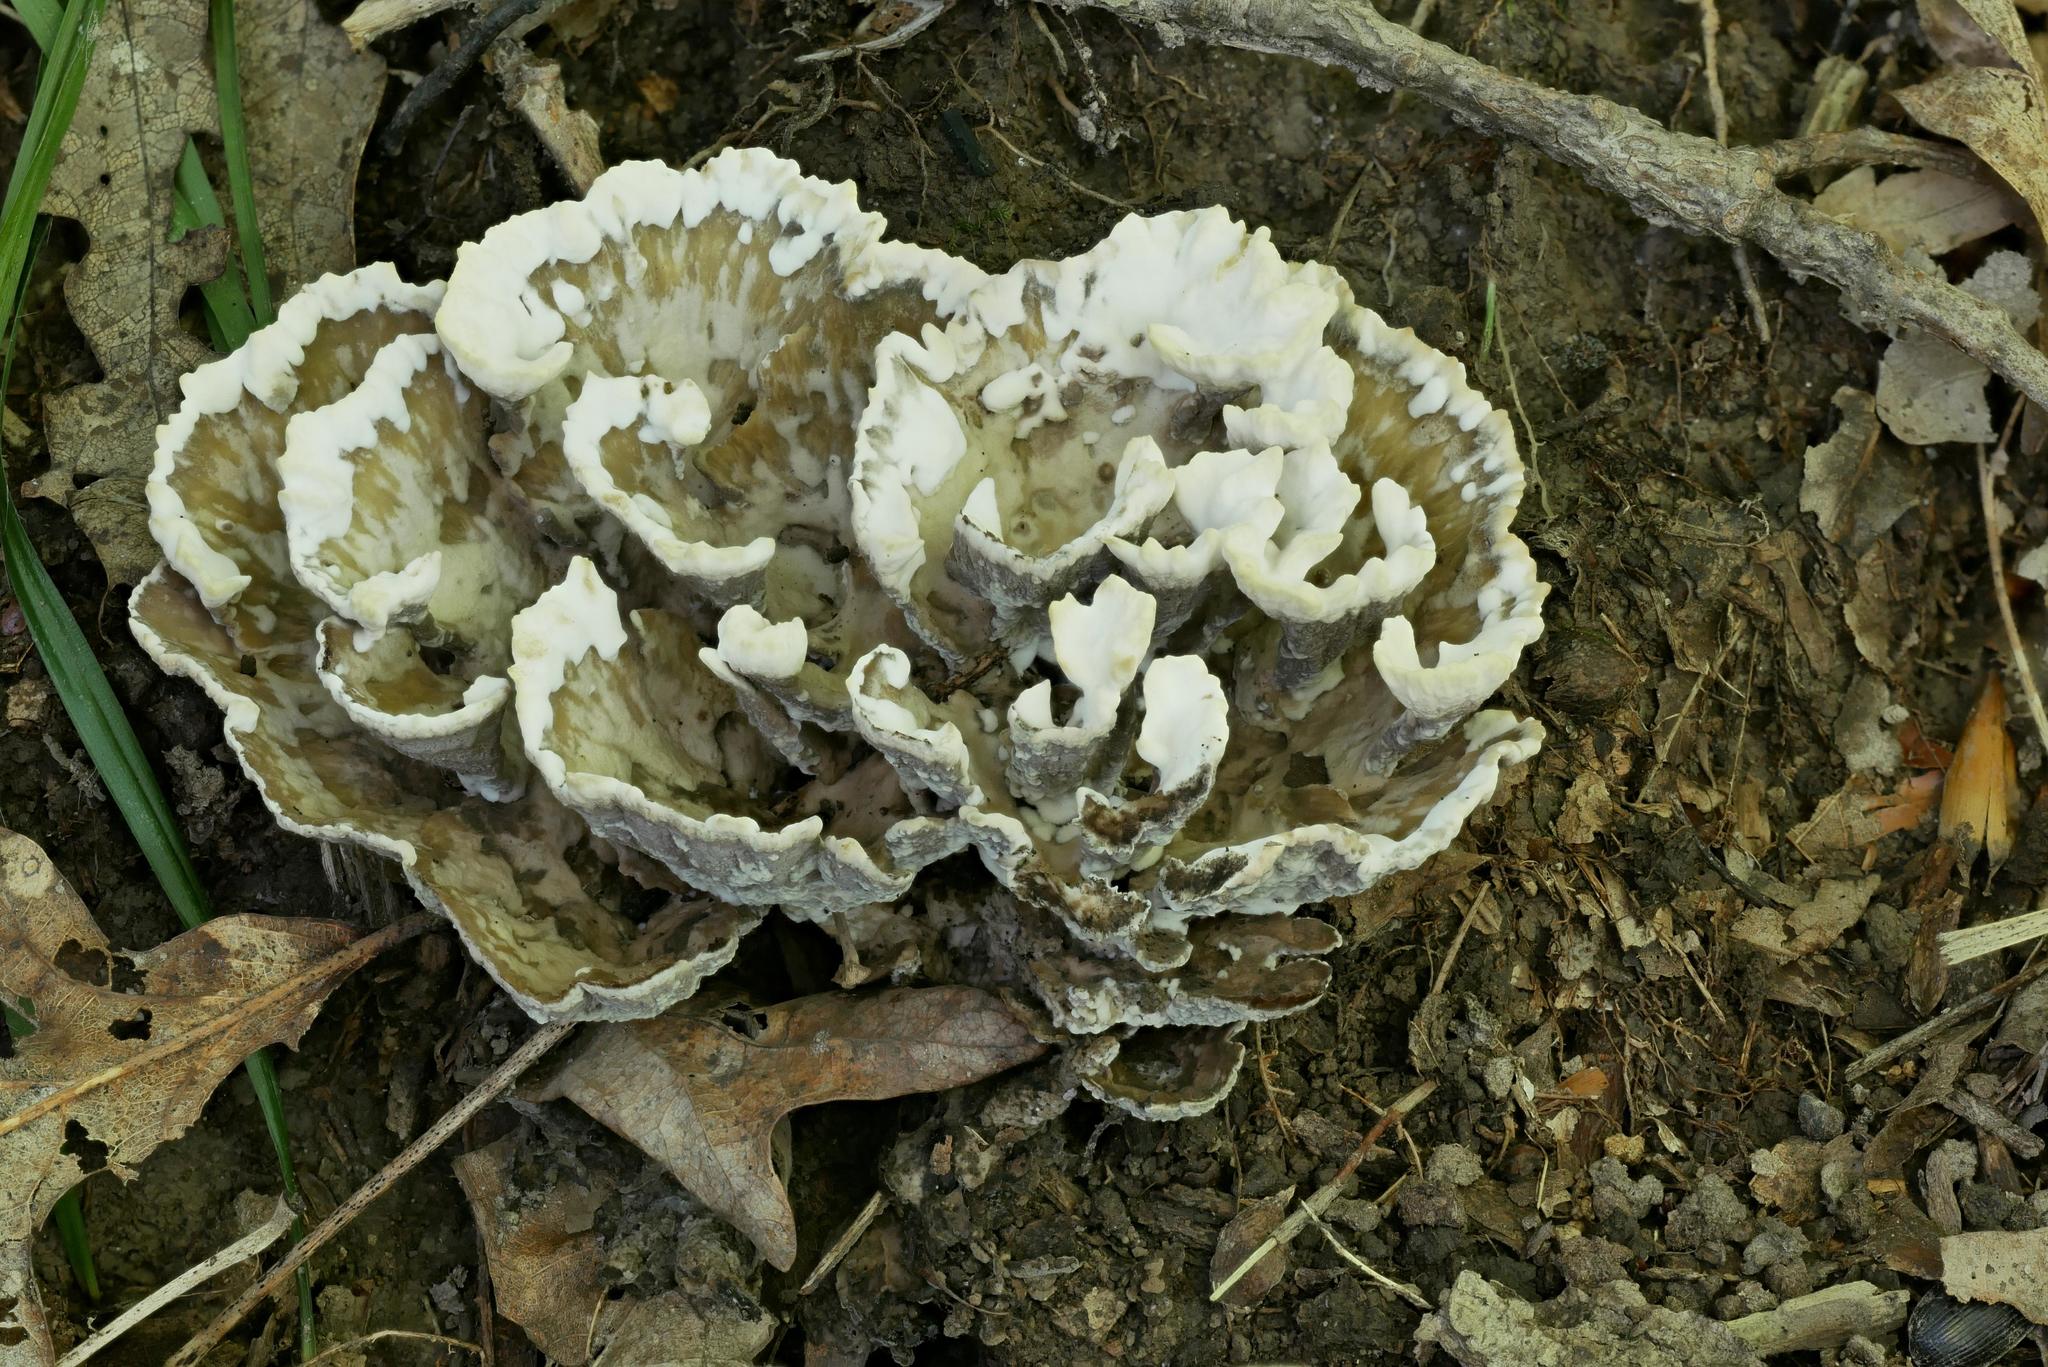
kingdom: Fungi
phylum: Basidiomycota
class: Agaricomycetes
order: Thelephorales
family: Thelephoraceae
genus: Thelephora
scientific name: Thelephora vialis
